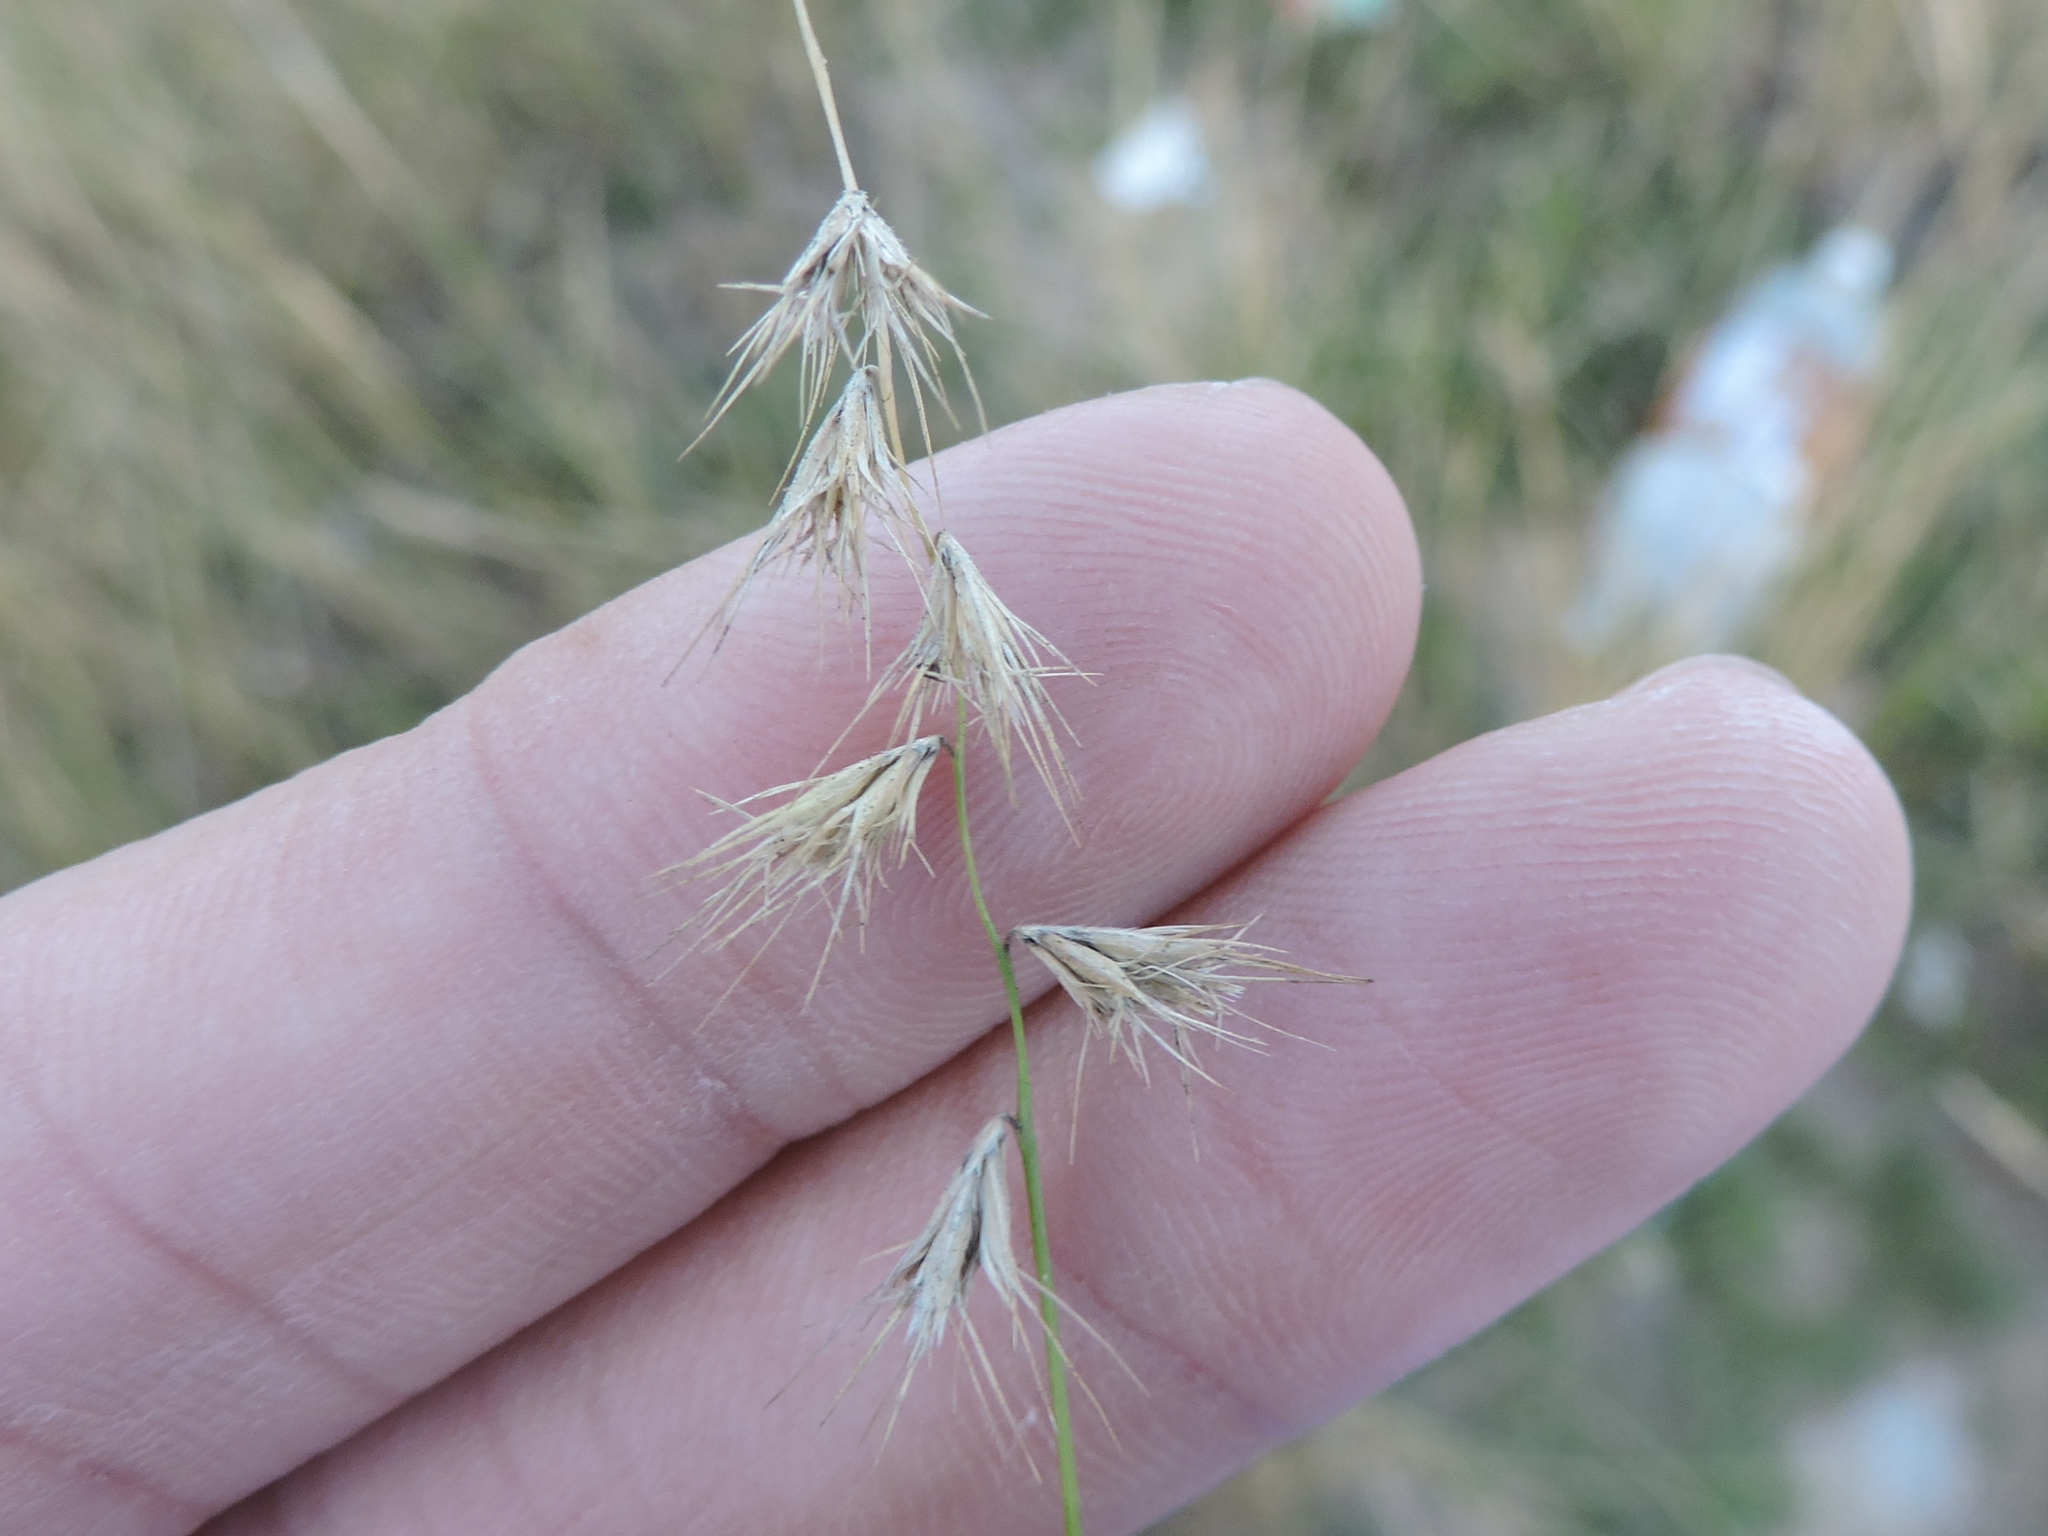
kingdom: Plantae
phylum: Tracheophyta
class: Liliopsida
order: Poales
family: Poaceae
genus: Bouteloua
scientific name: Bouteloua rigidiseta
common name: Texas grama
